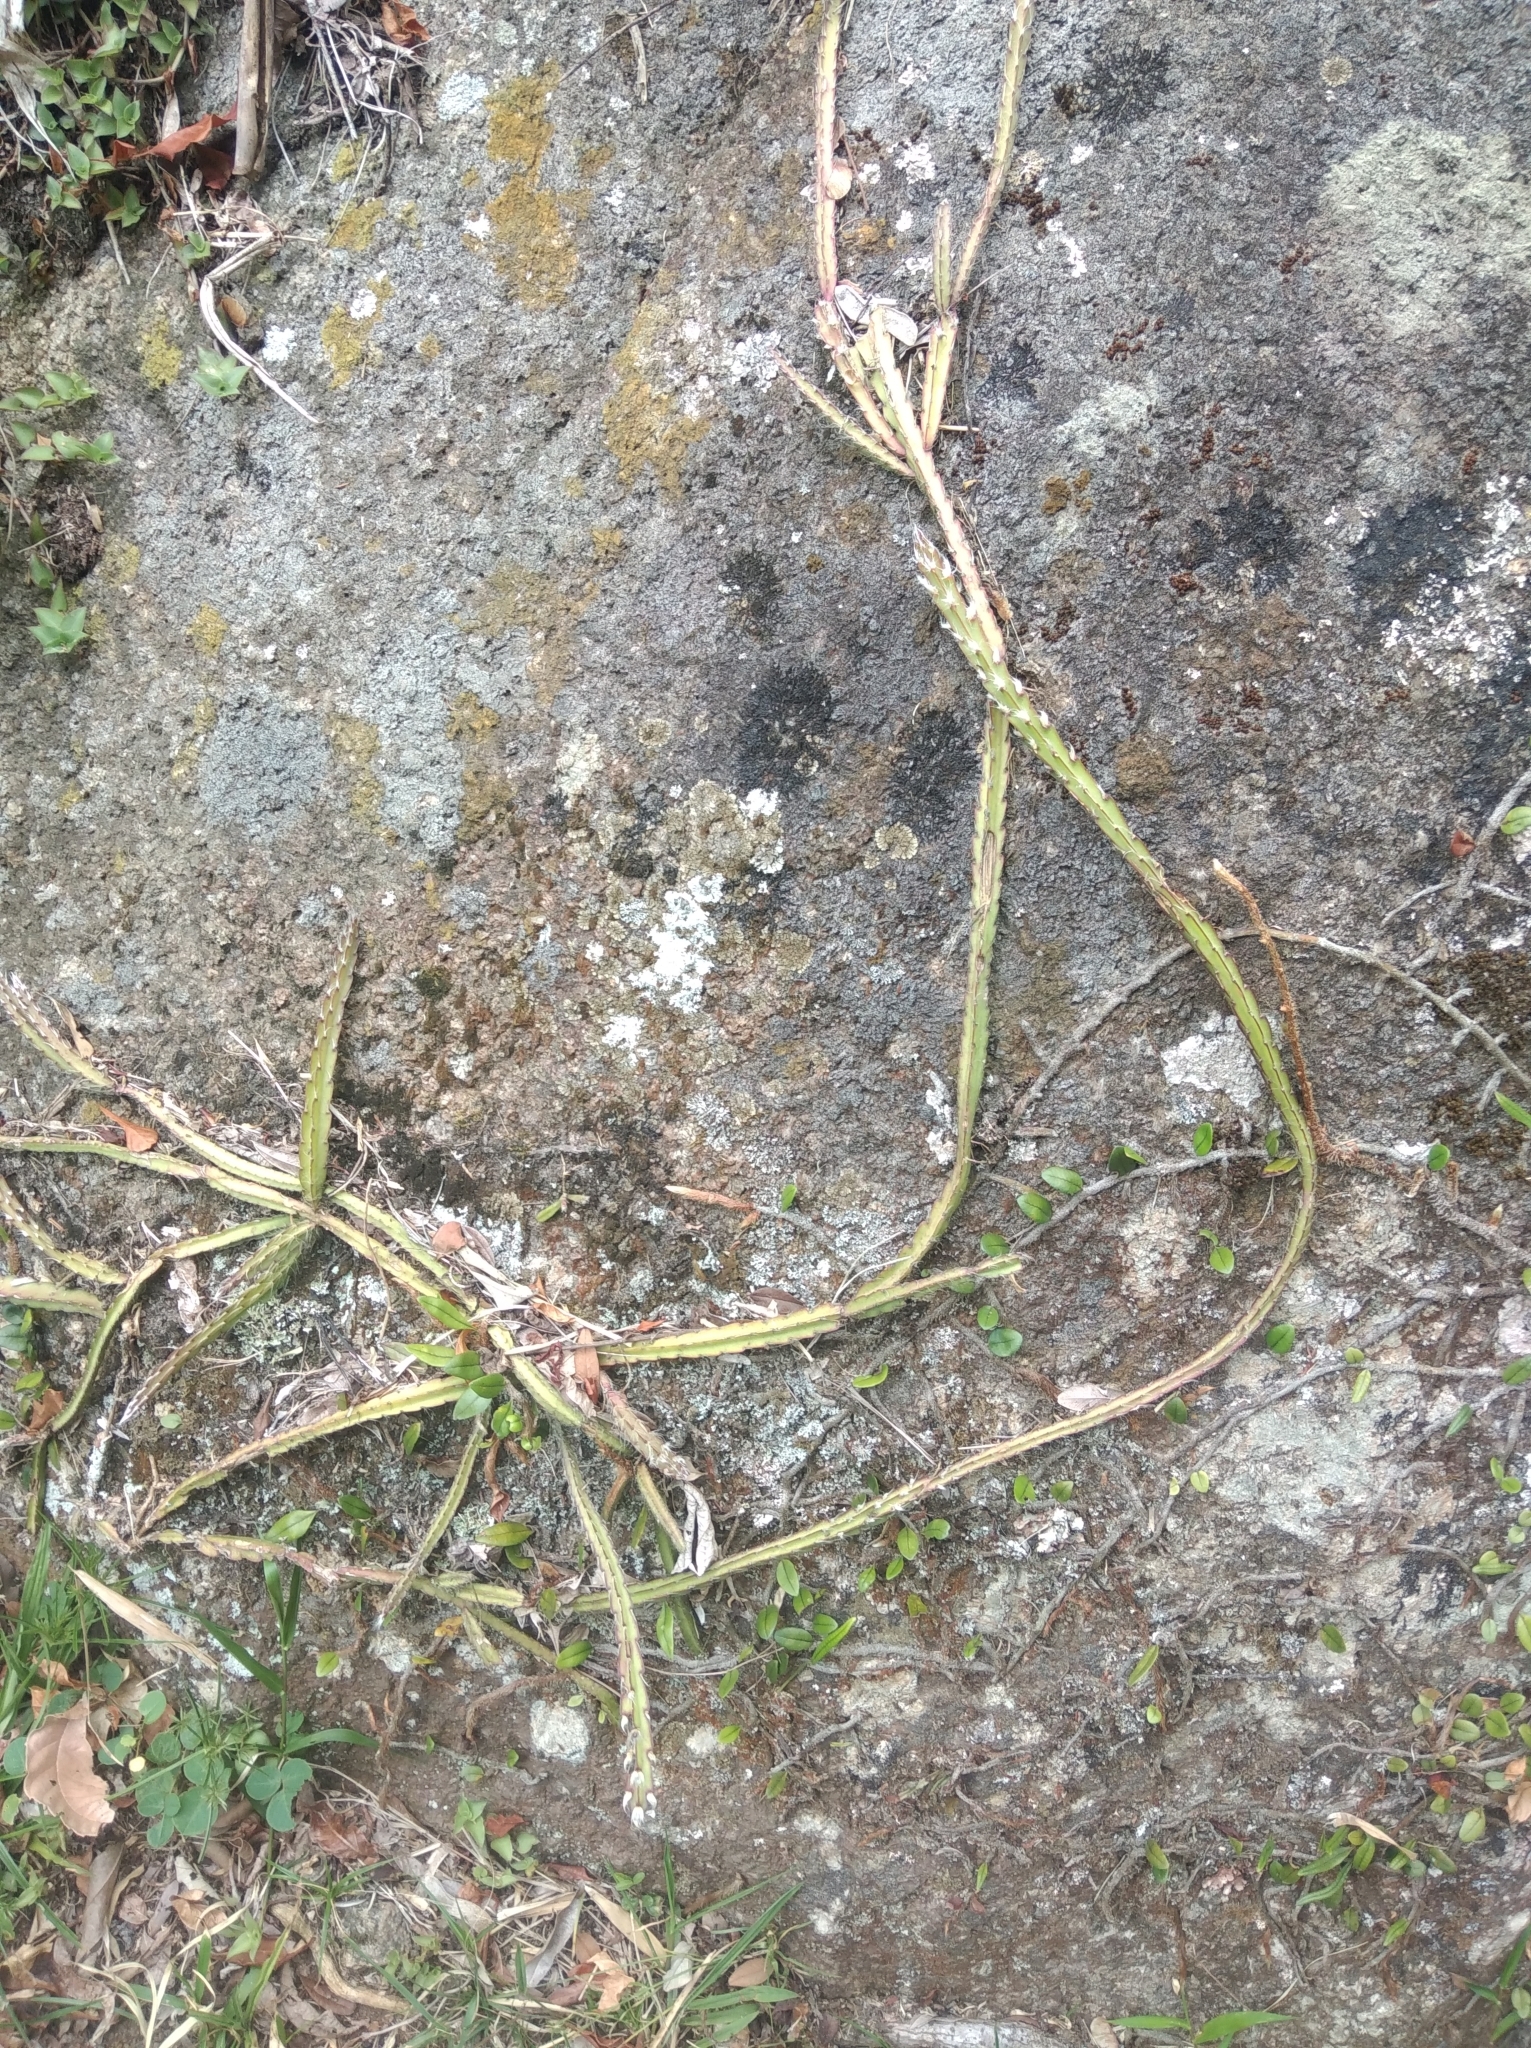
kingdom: Plantae
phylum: Tracheophyta
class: Magnoliopsida
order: Caryophyllales
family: Cactaceae
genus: Lepismium
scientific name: Lepismium cruciforme
